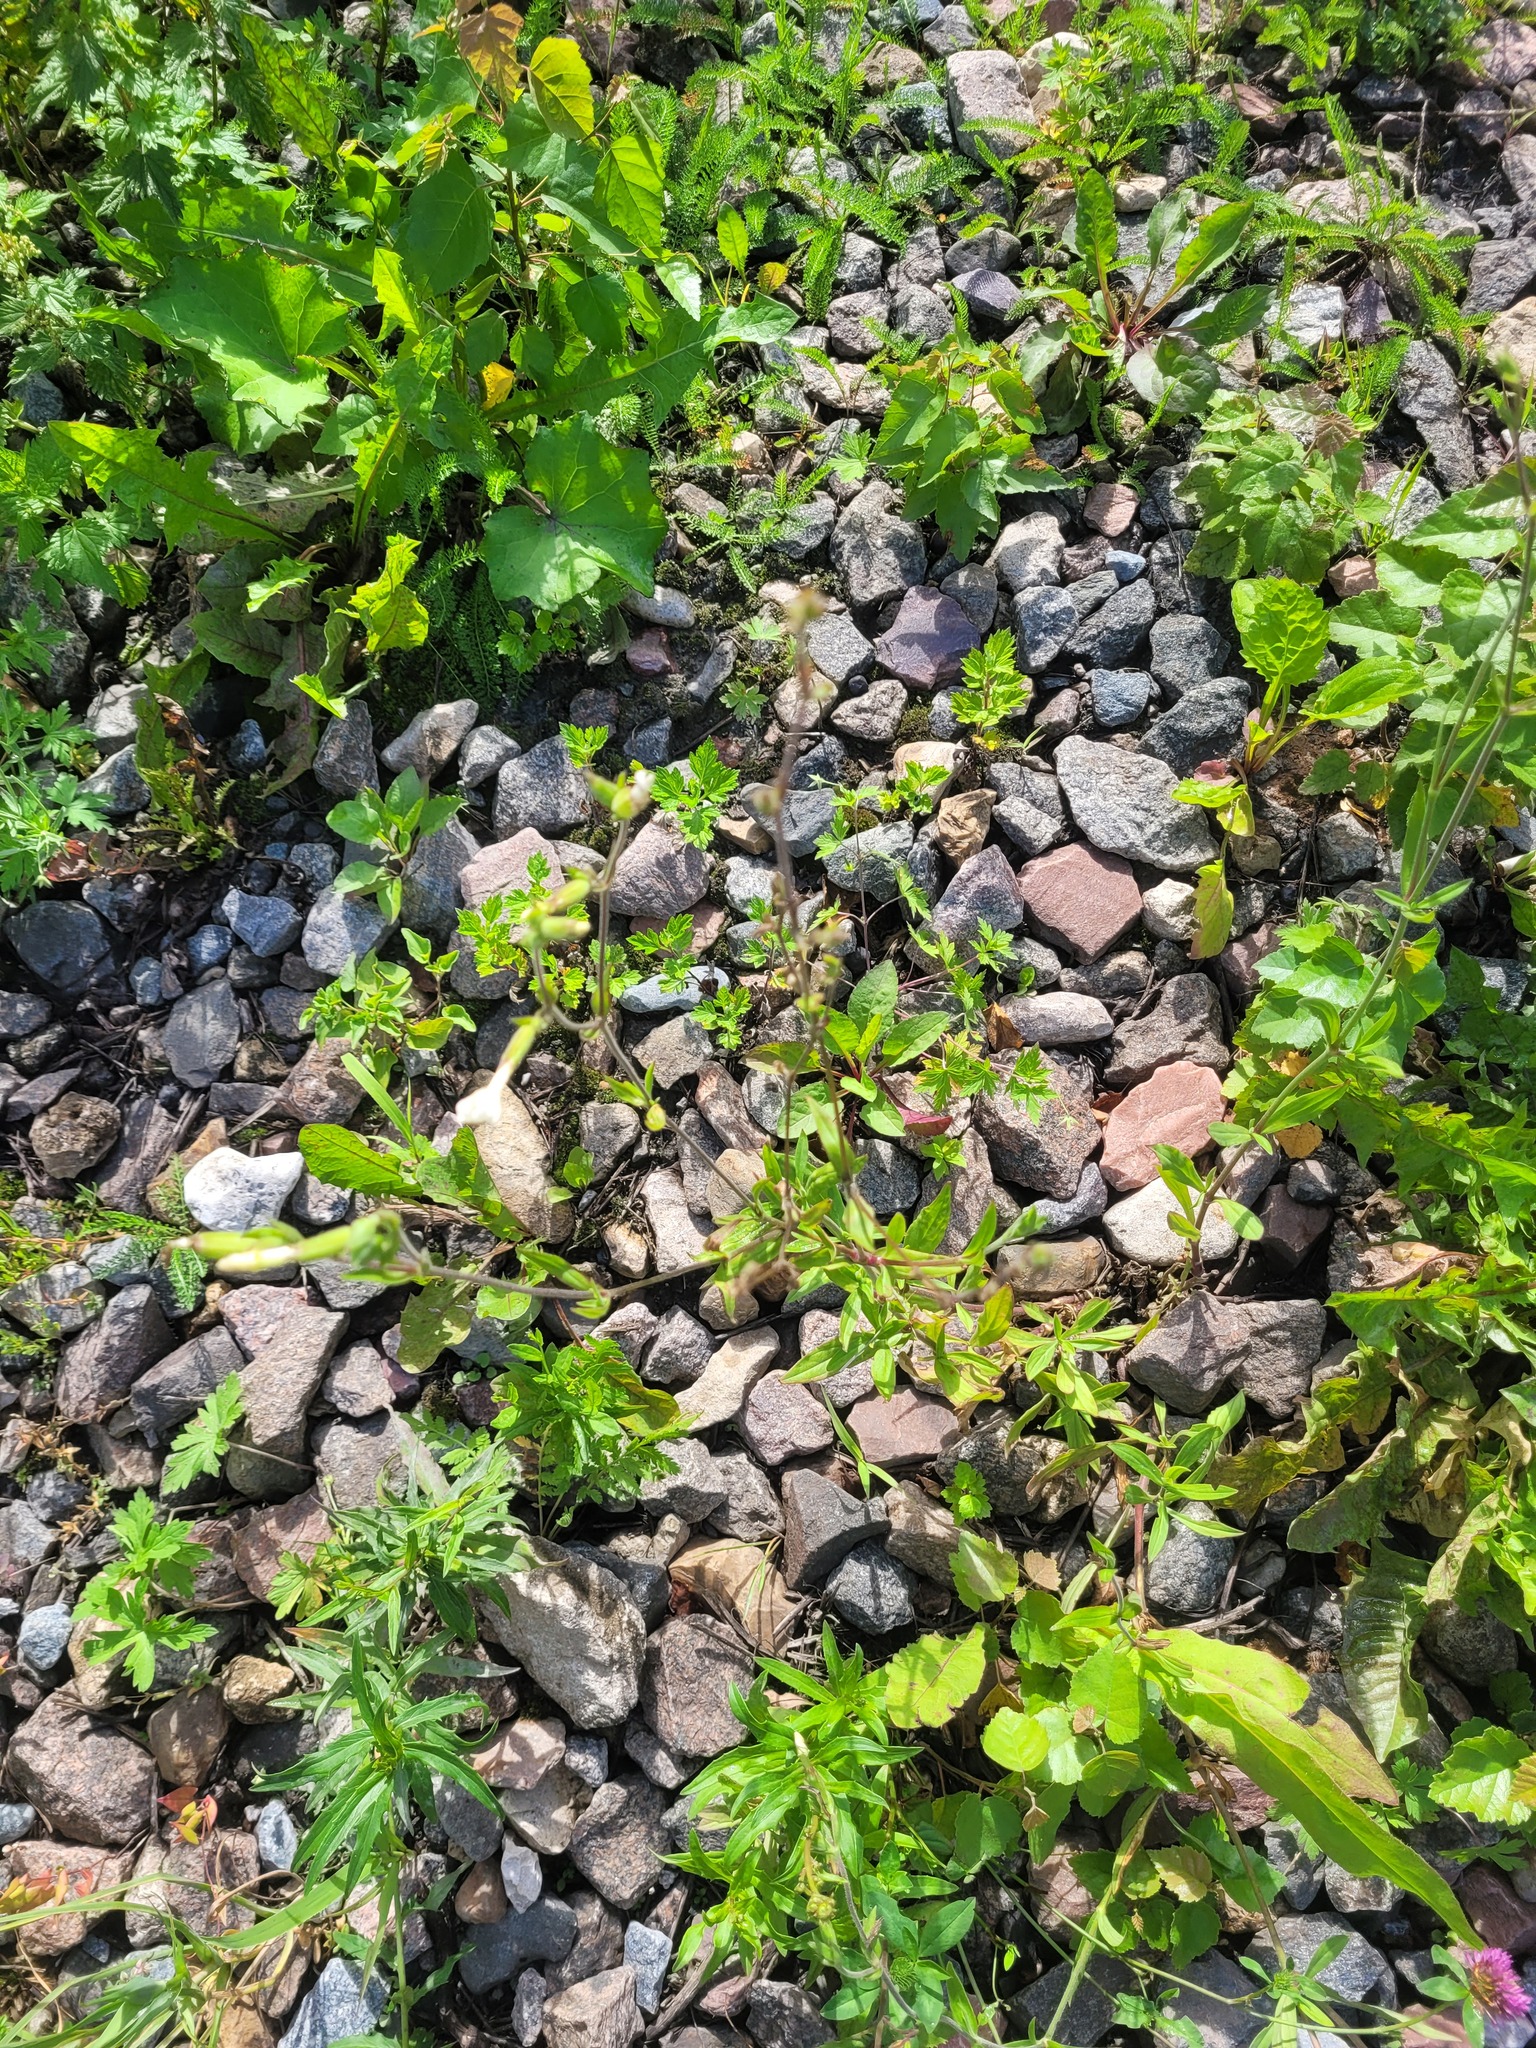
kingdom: Plantae
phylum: Tracheophyta
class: Magnoliopsida
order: Caryophyllales
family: Caryophyllaceae
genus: Silene
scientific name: Silene latifolia
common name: White campion
